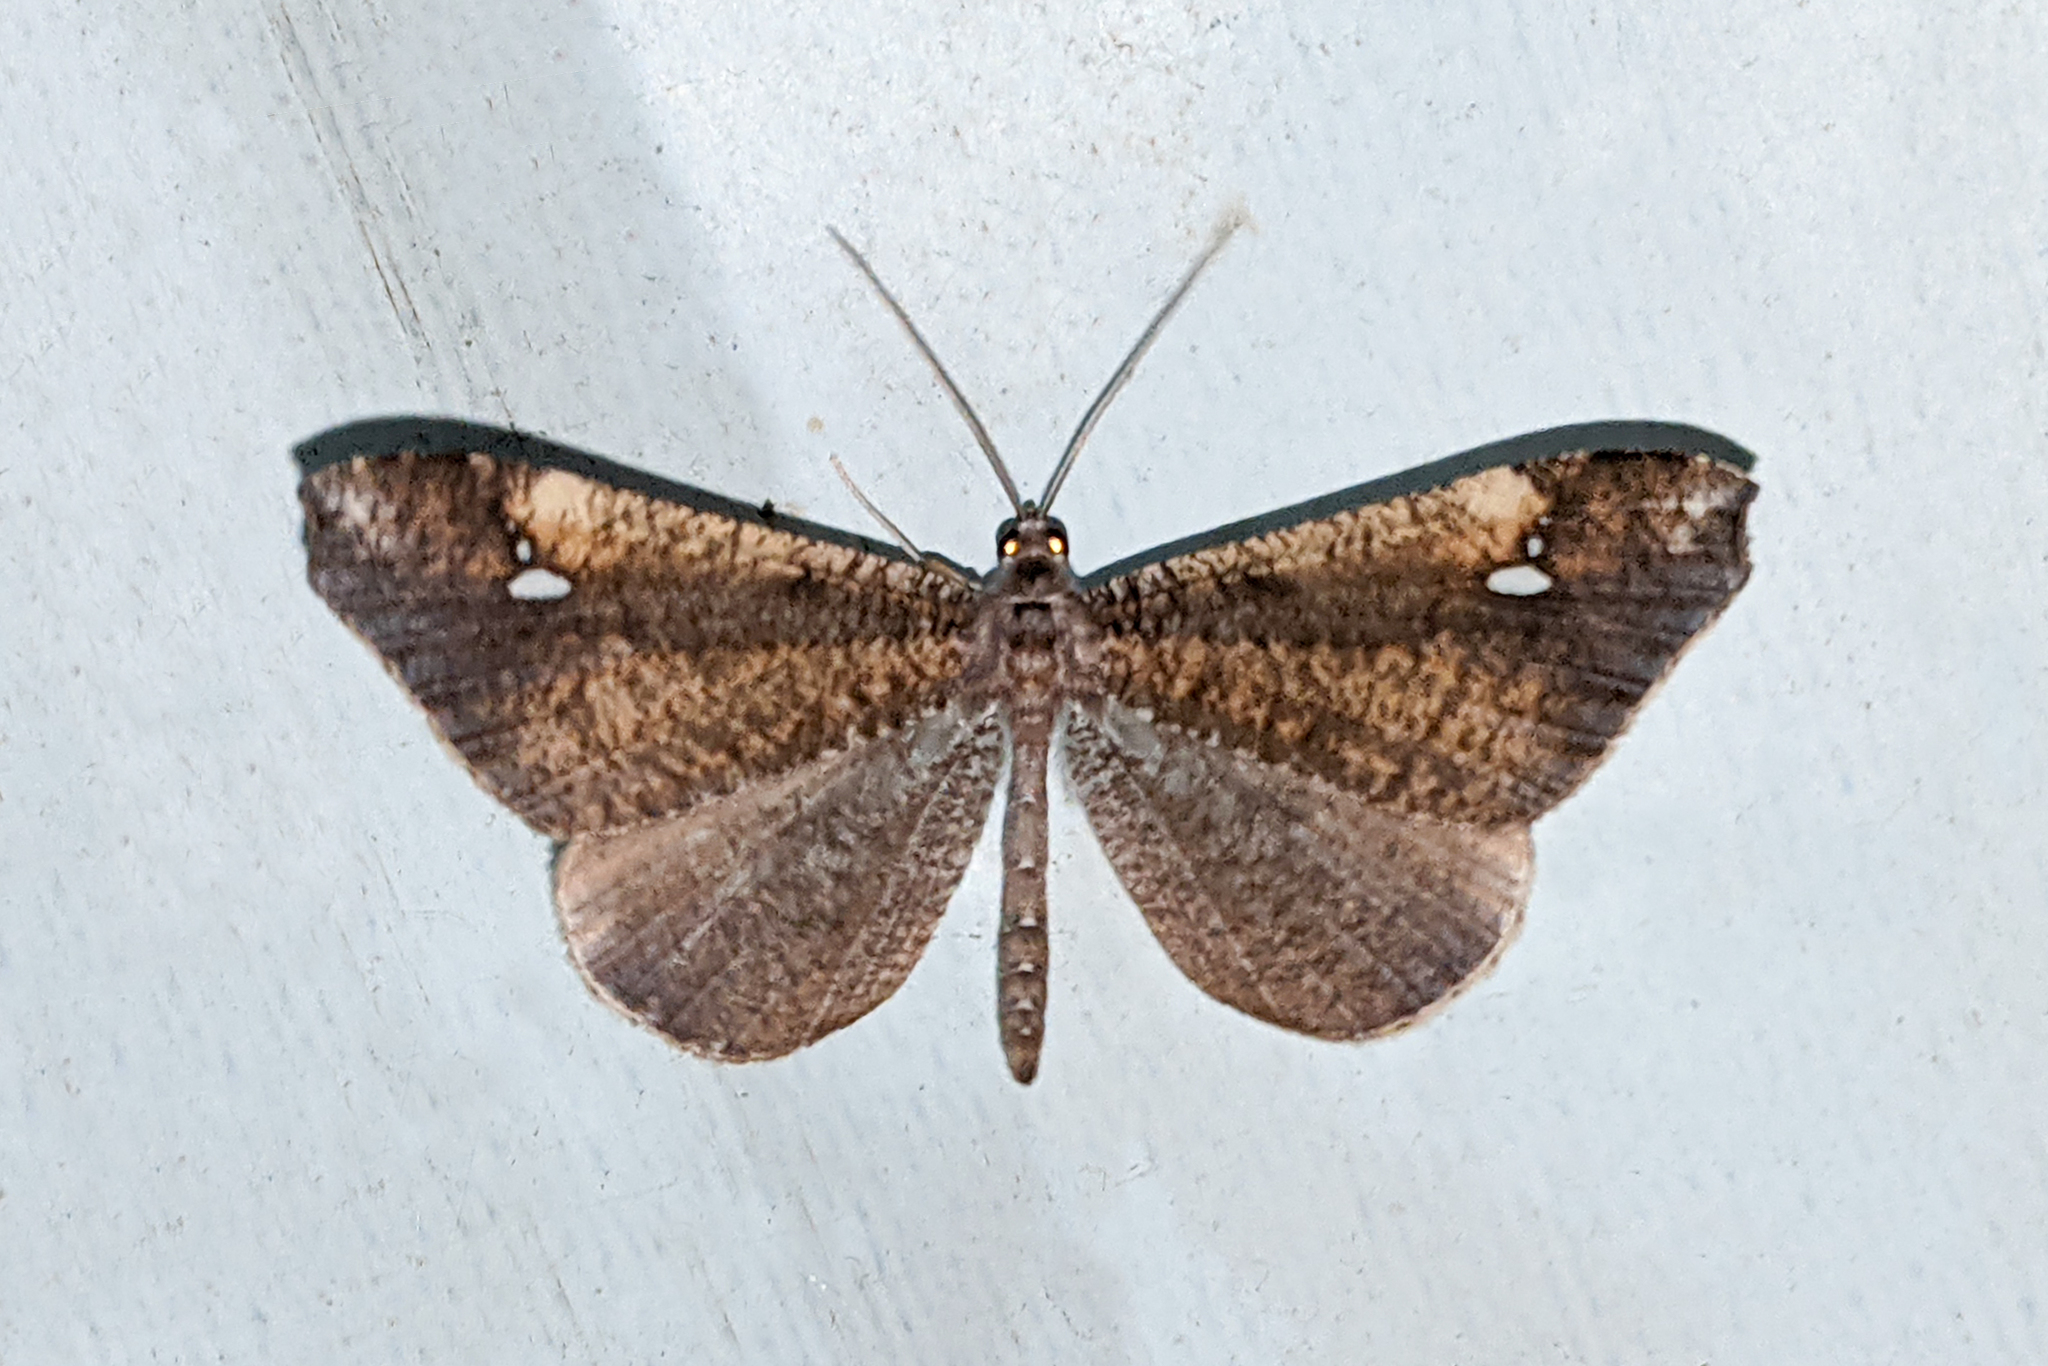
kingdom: Animalia
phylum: Arthropoda
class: Insecta
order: Lepidoptera
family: Hedylidae
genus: Macrosoma
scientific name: Macrosoma muscerdata
